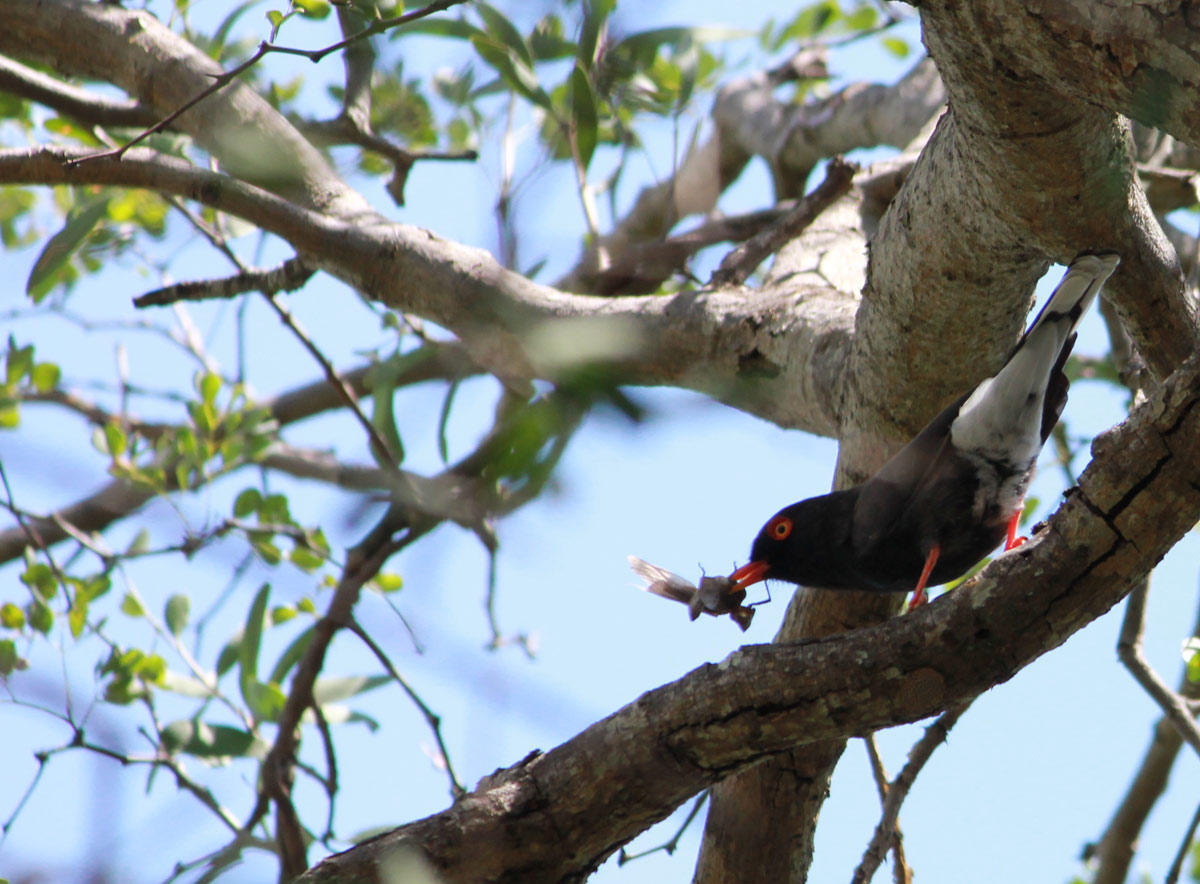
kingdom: Animalia
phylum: Chordata
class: Aves
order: Passeriformes
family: Prionopidae
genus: Prionops
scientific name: Prionops retzii
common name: Retz's helmetshrike
